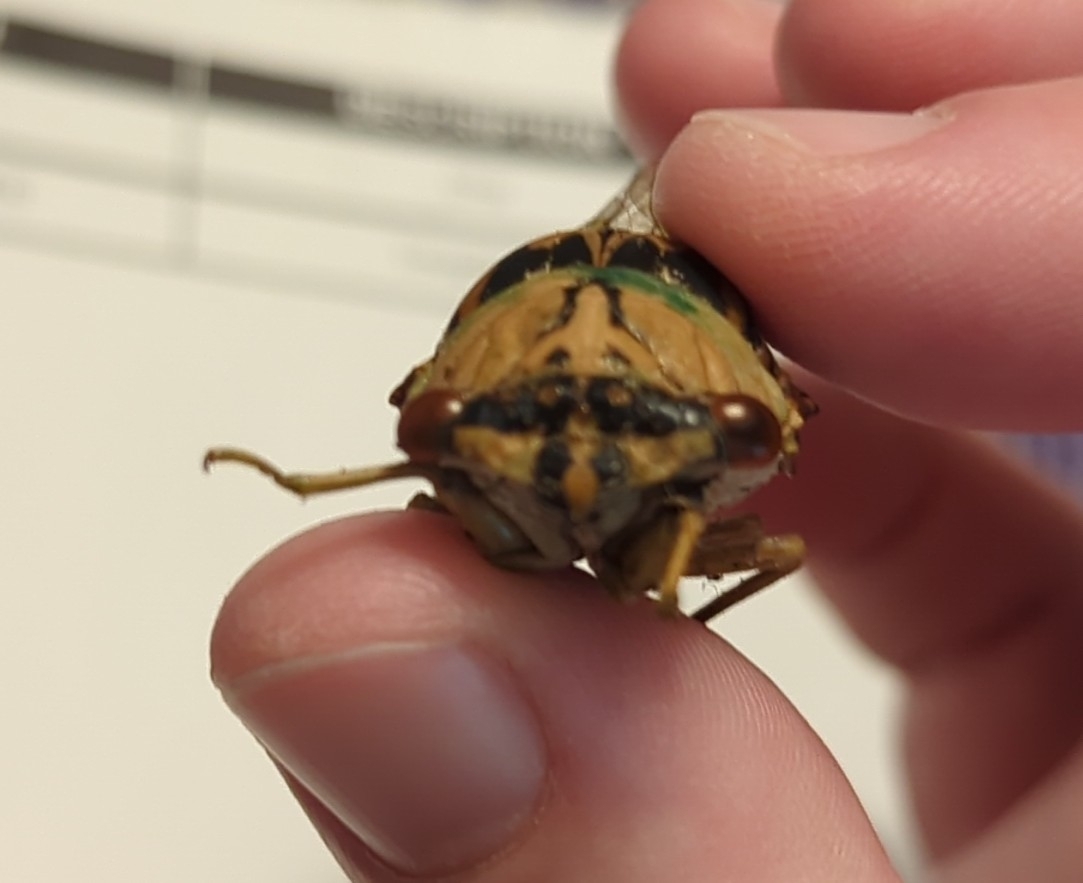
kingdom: Animalia
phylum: Arthropoda
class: Insecta
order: Hemiptera
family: Cicadidae
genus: Megatibicen
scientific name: Megatibicen resh
